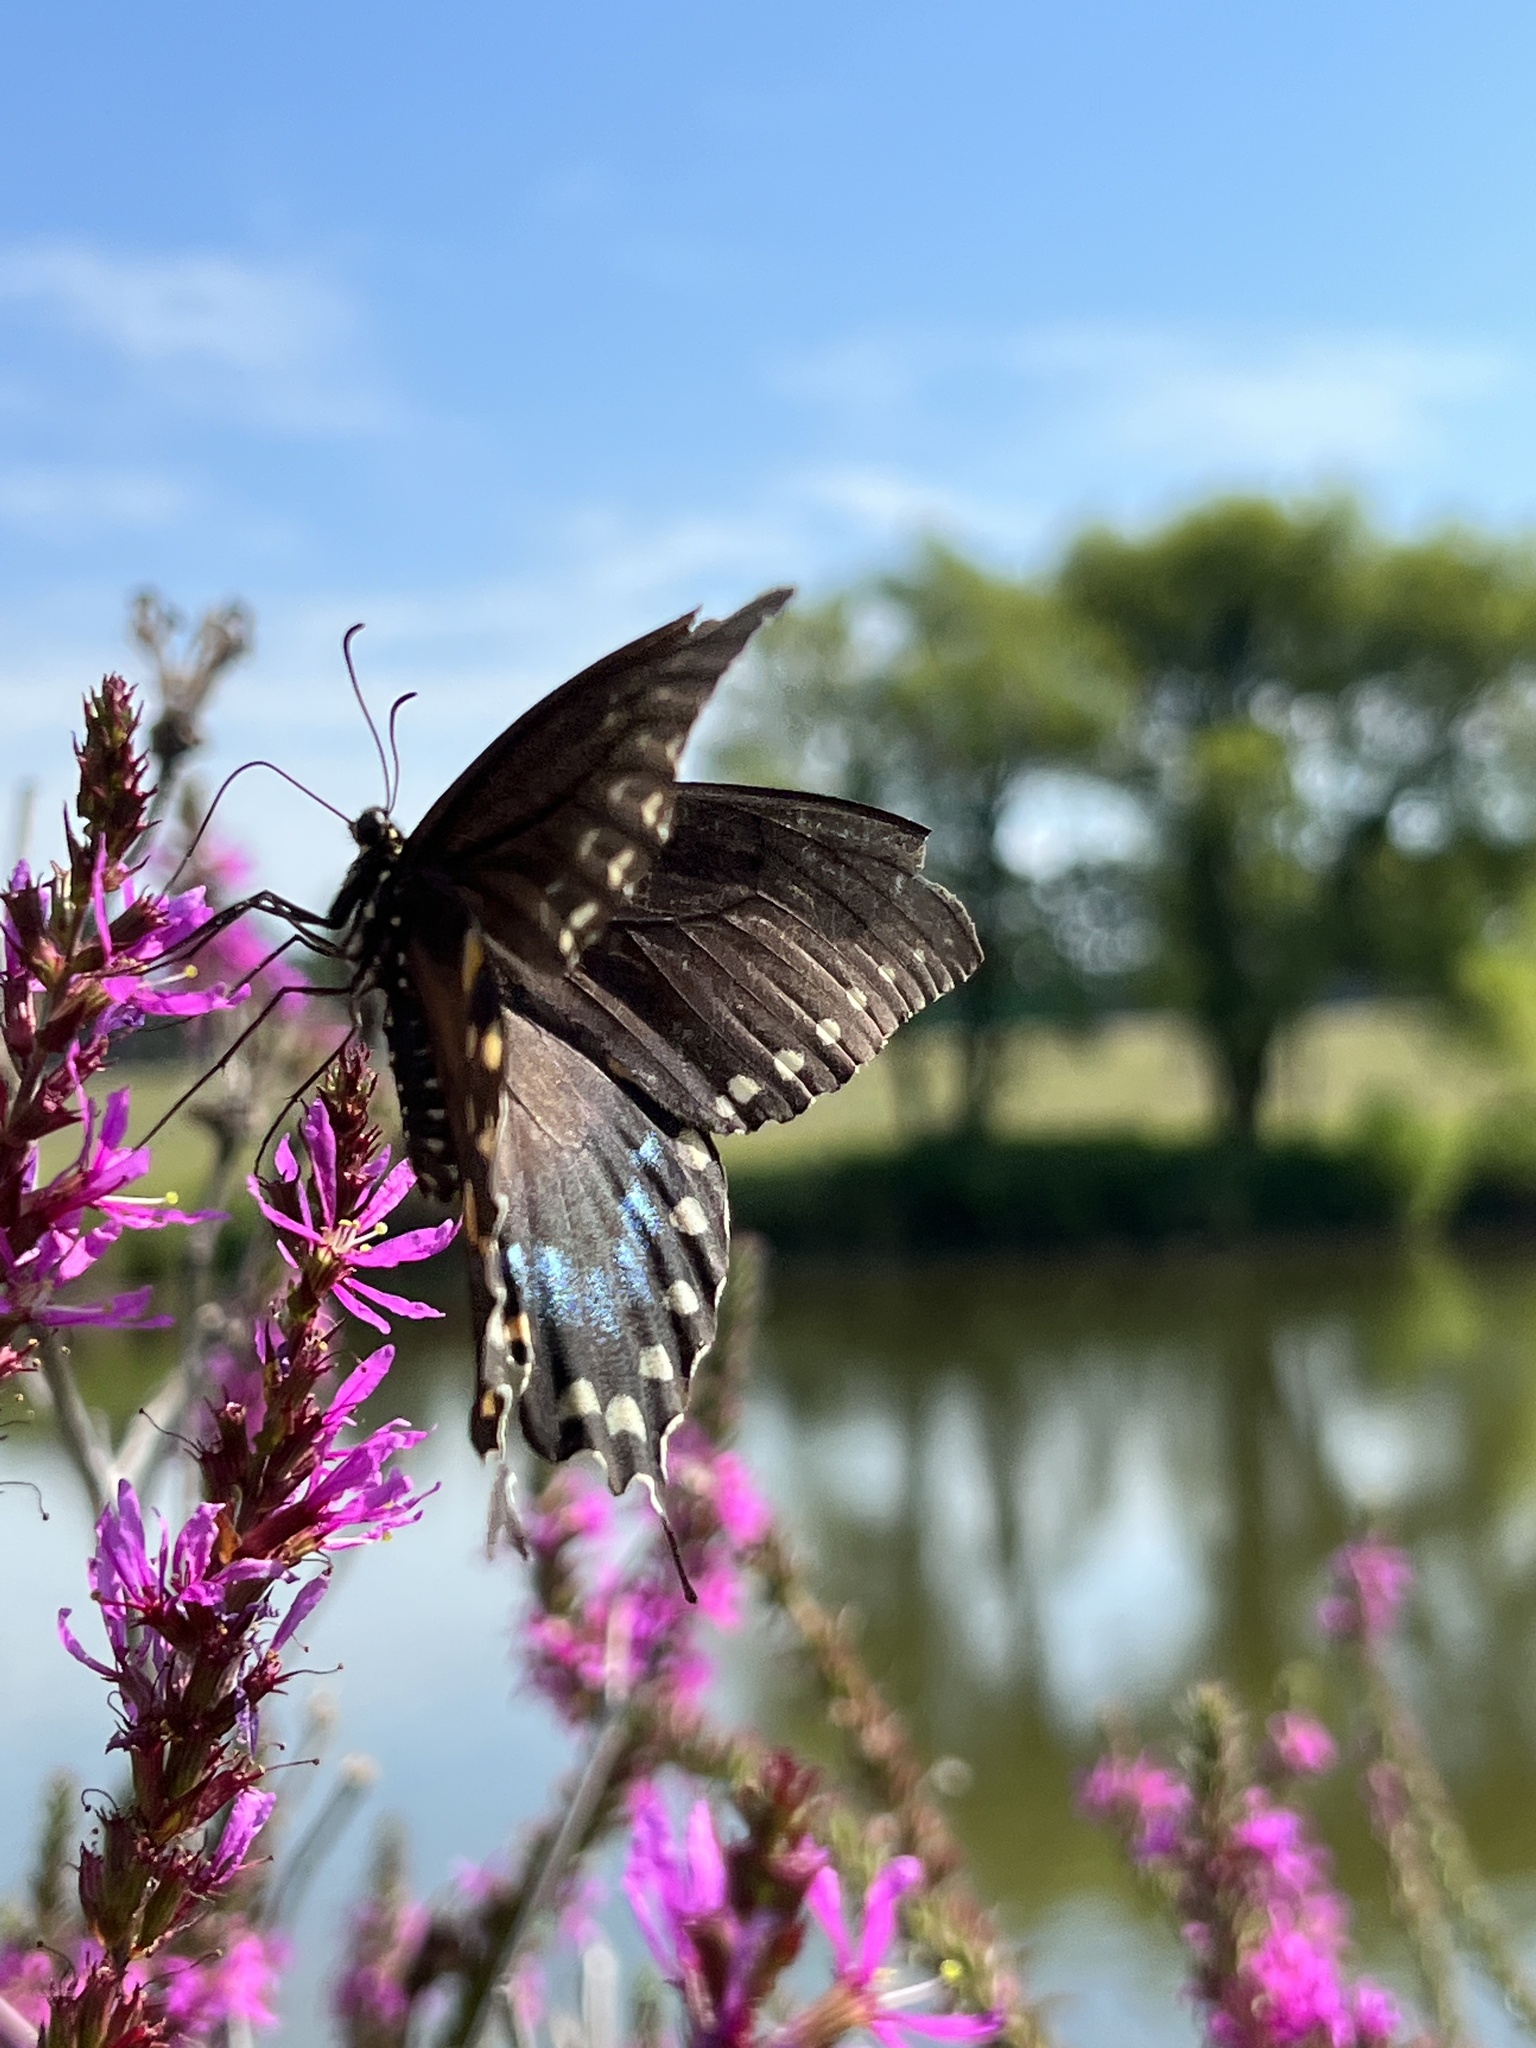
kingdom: Animalia
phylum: Arthropoda
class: Insecta
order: Lepidoptera
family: Papilionidae
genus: Papilio
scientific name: Papilio troilus
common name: Spicebush swallowtail
